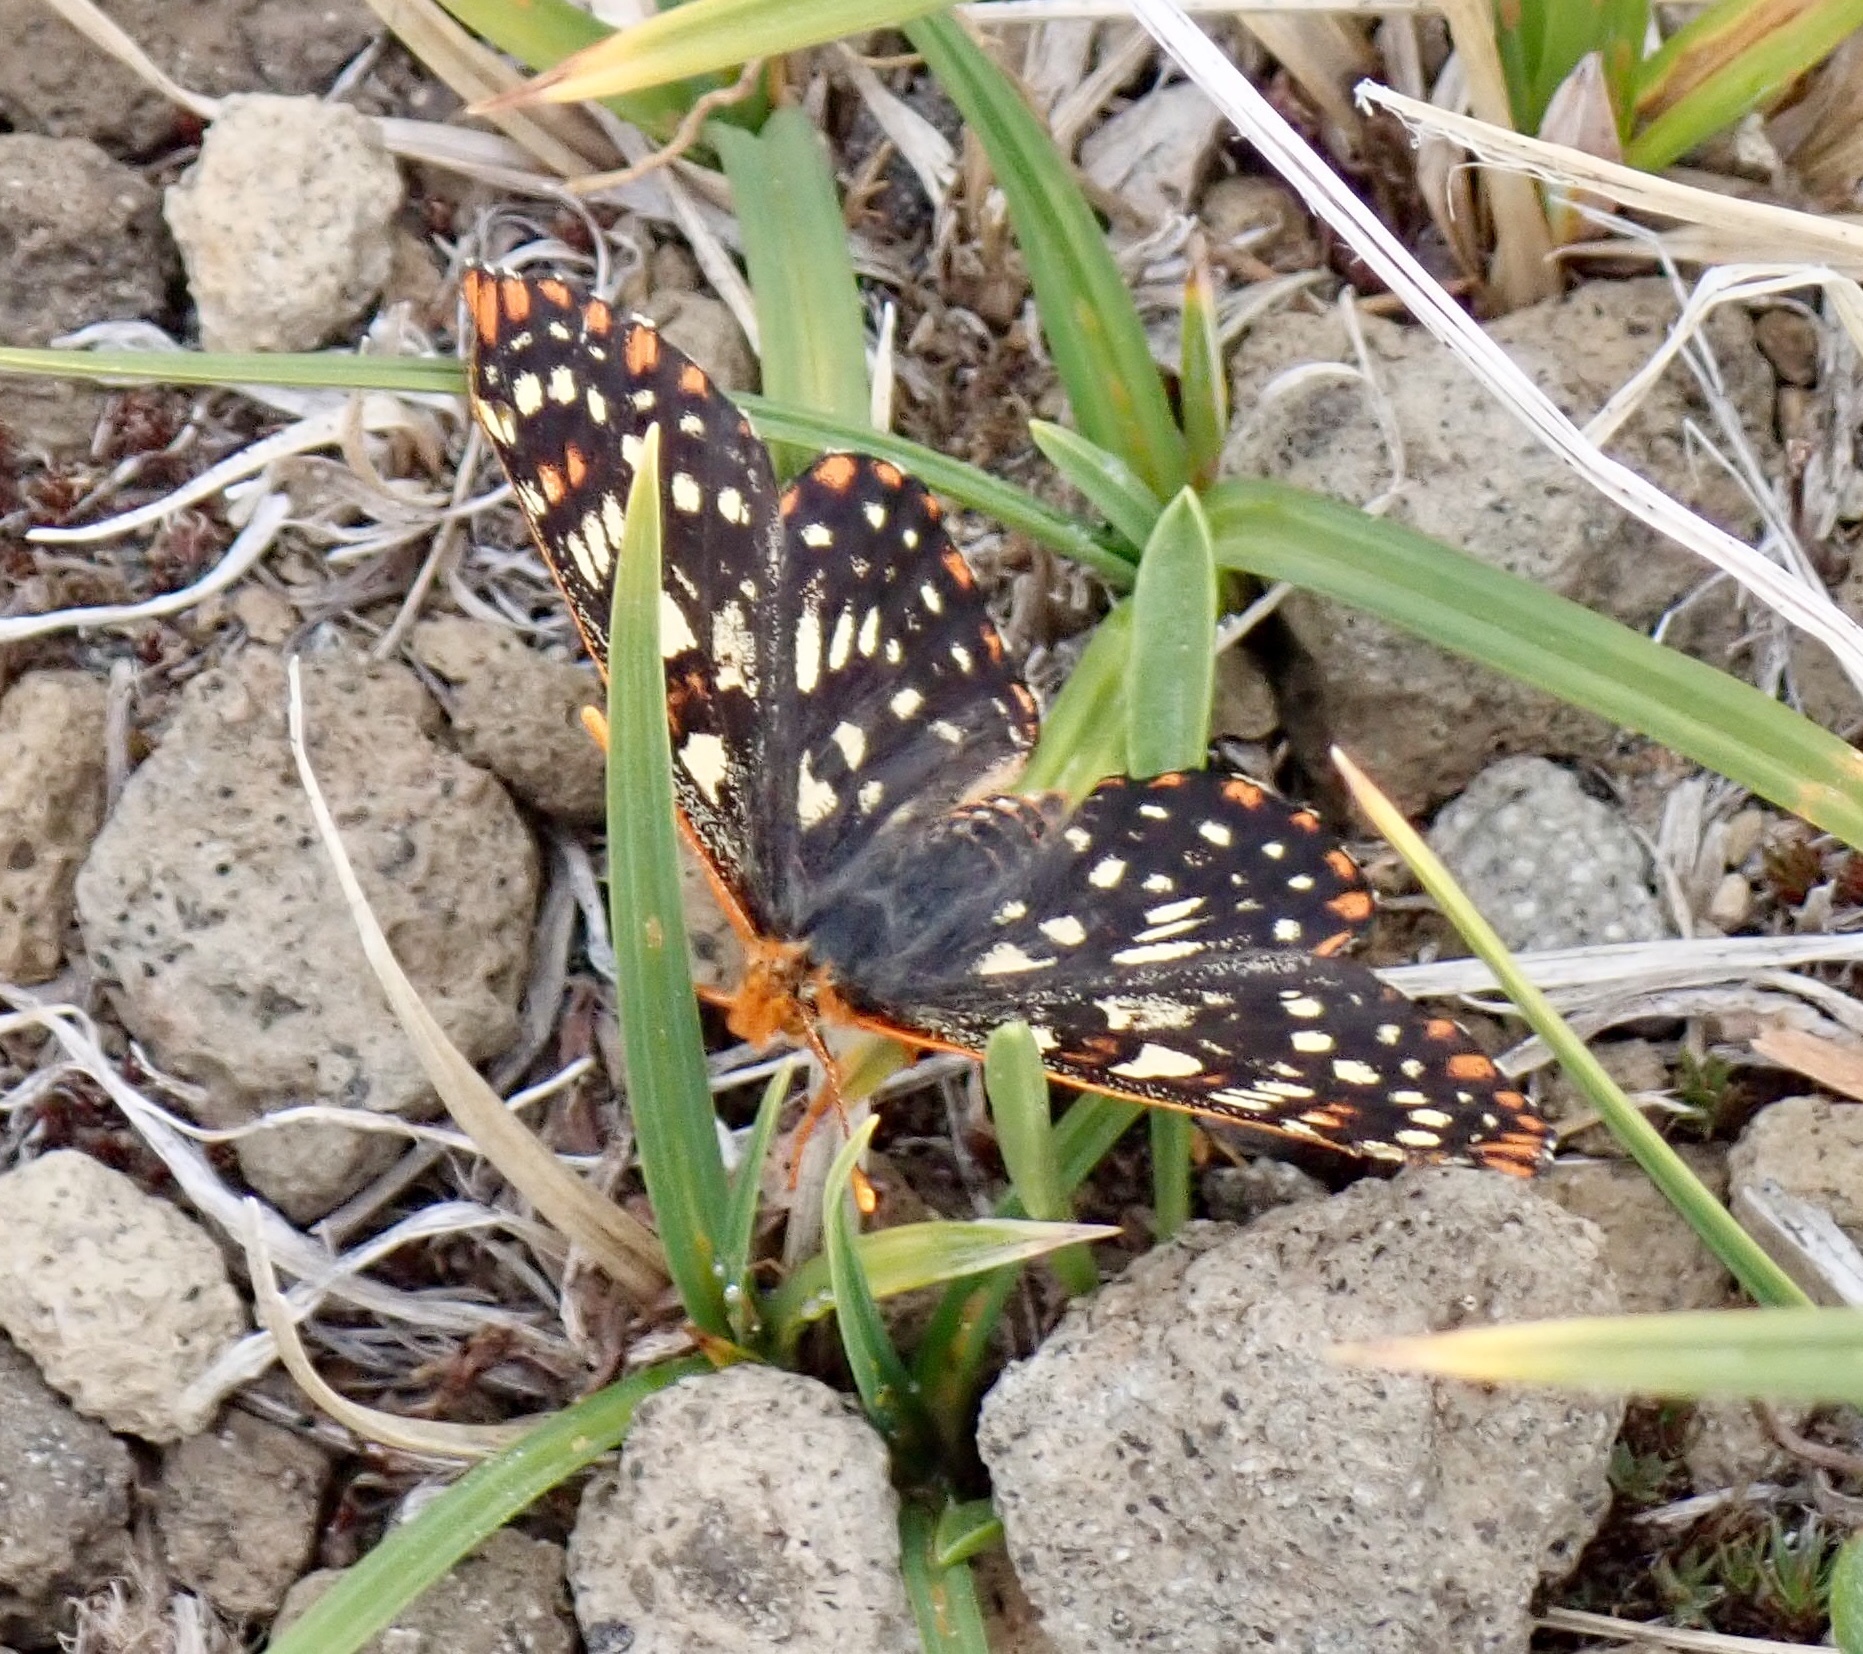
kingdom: Animalia
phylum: Arthropoda
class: Insecta
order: Lepidoptera
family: Nymphalidae
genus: Occidryas
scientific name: Occidryas colon
